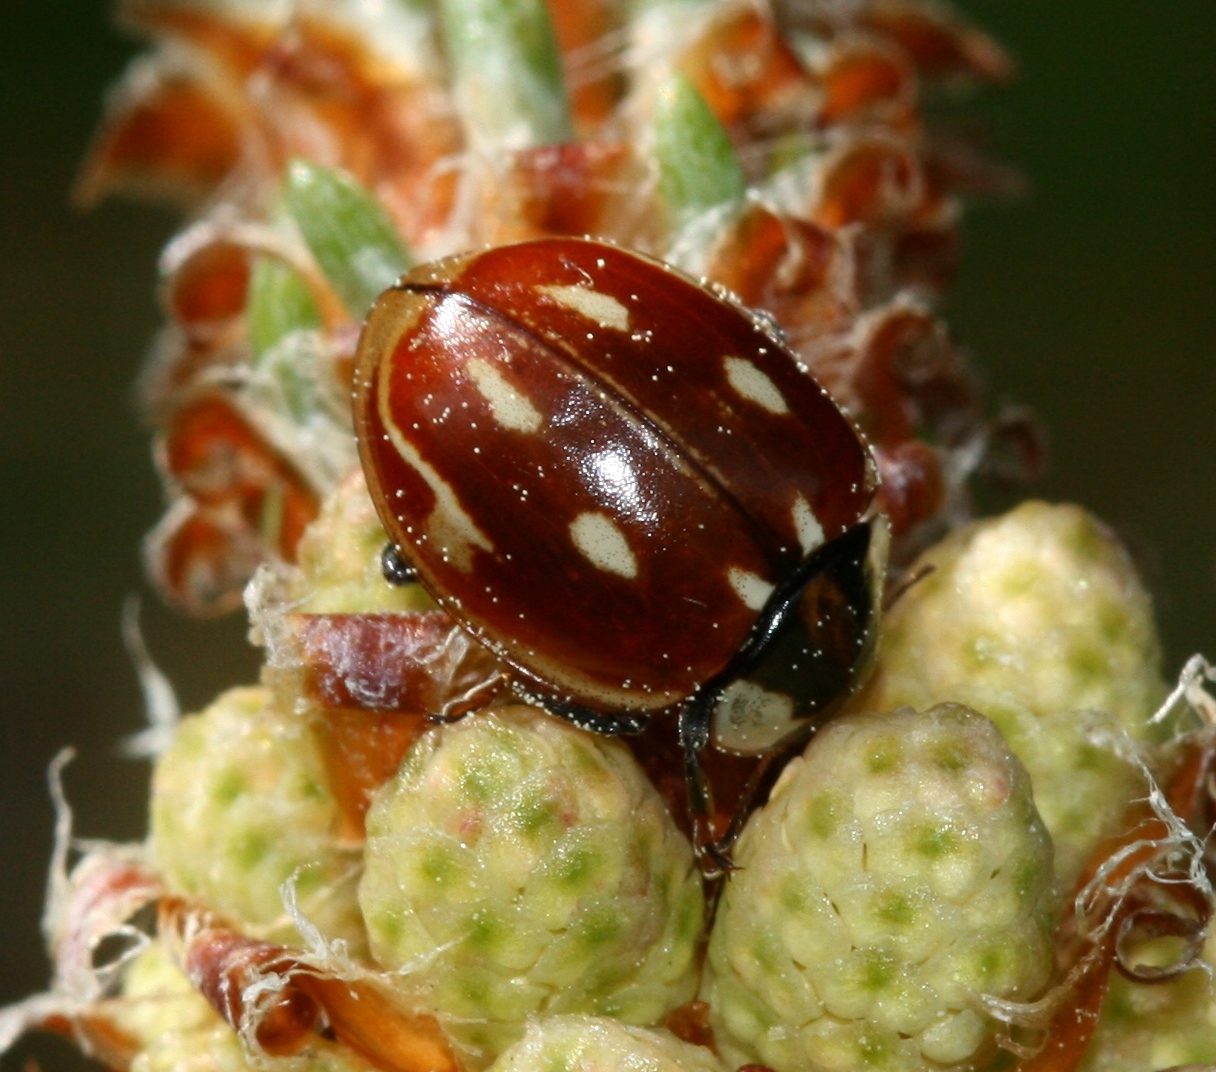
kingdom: Animalia
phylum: Arthropoda
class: Insecta
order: Coleoptera
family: Coccinellidae
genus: Myzia
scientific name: Myzia oblongoguttata
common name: Striped ladybird
